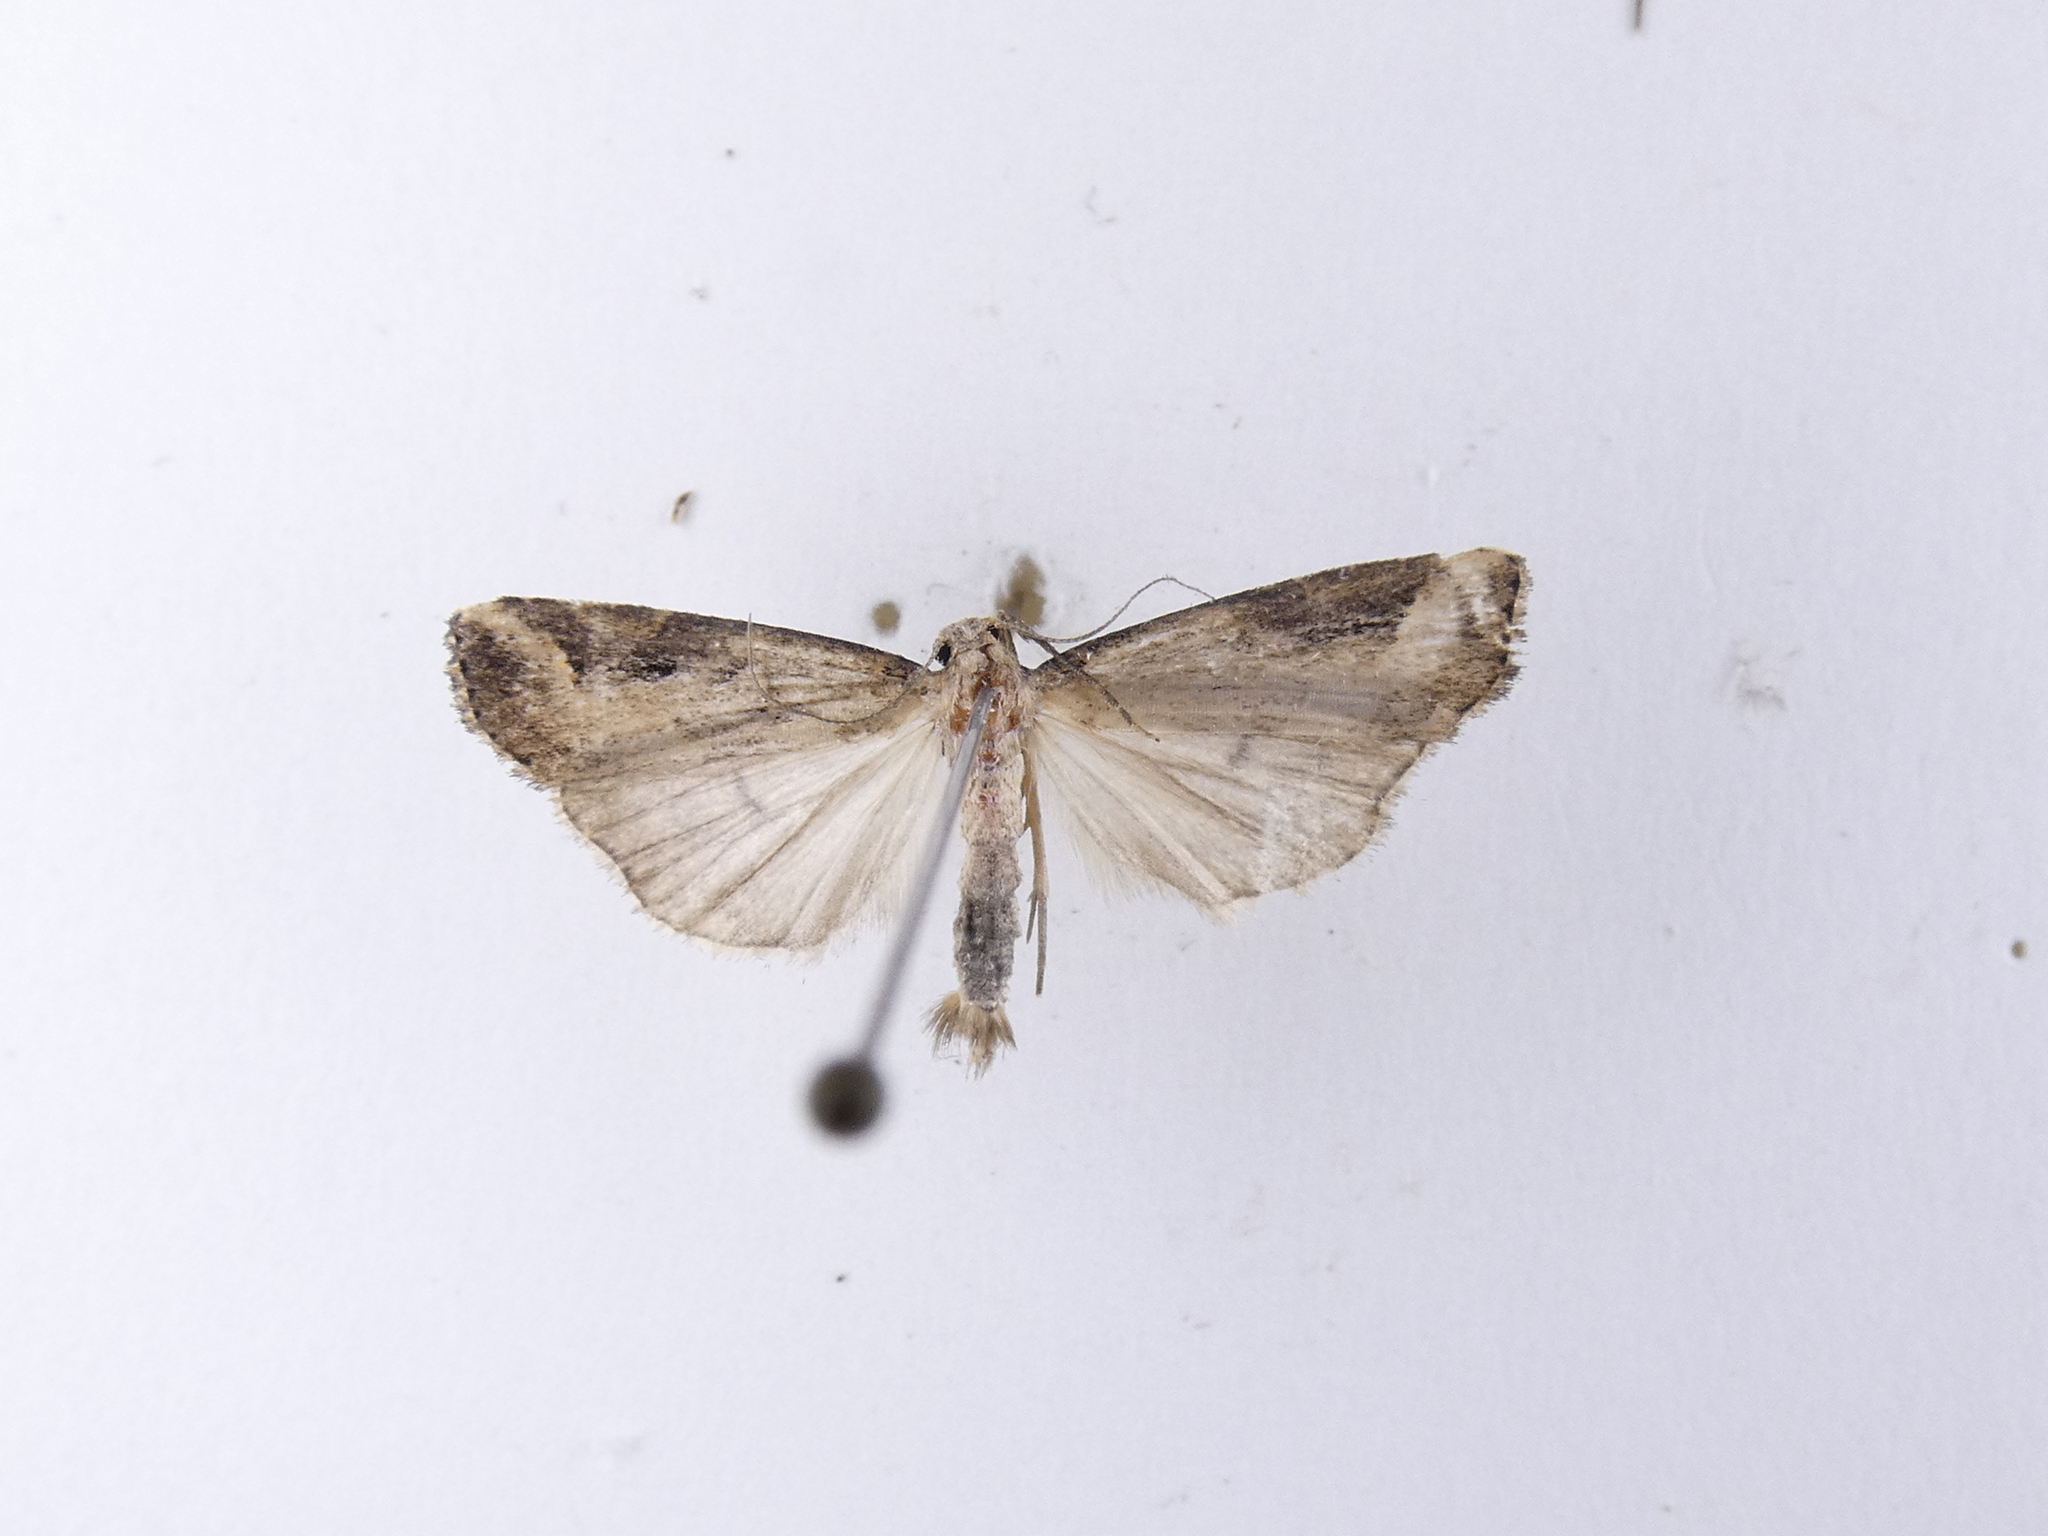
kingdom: Animalia
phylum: Arthropoda
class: Insecta
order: Lepidoptera
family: Erebidae
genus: Schrankia
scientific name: Schrankia costaestrigalis
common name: Pinion-streaked snout
